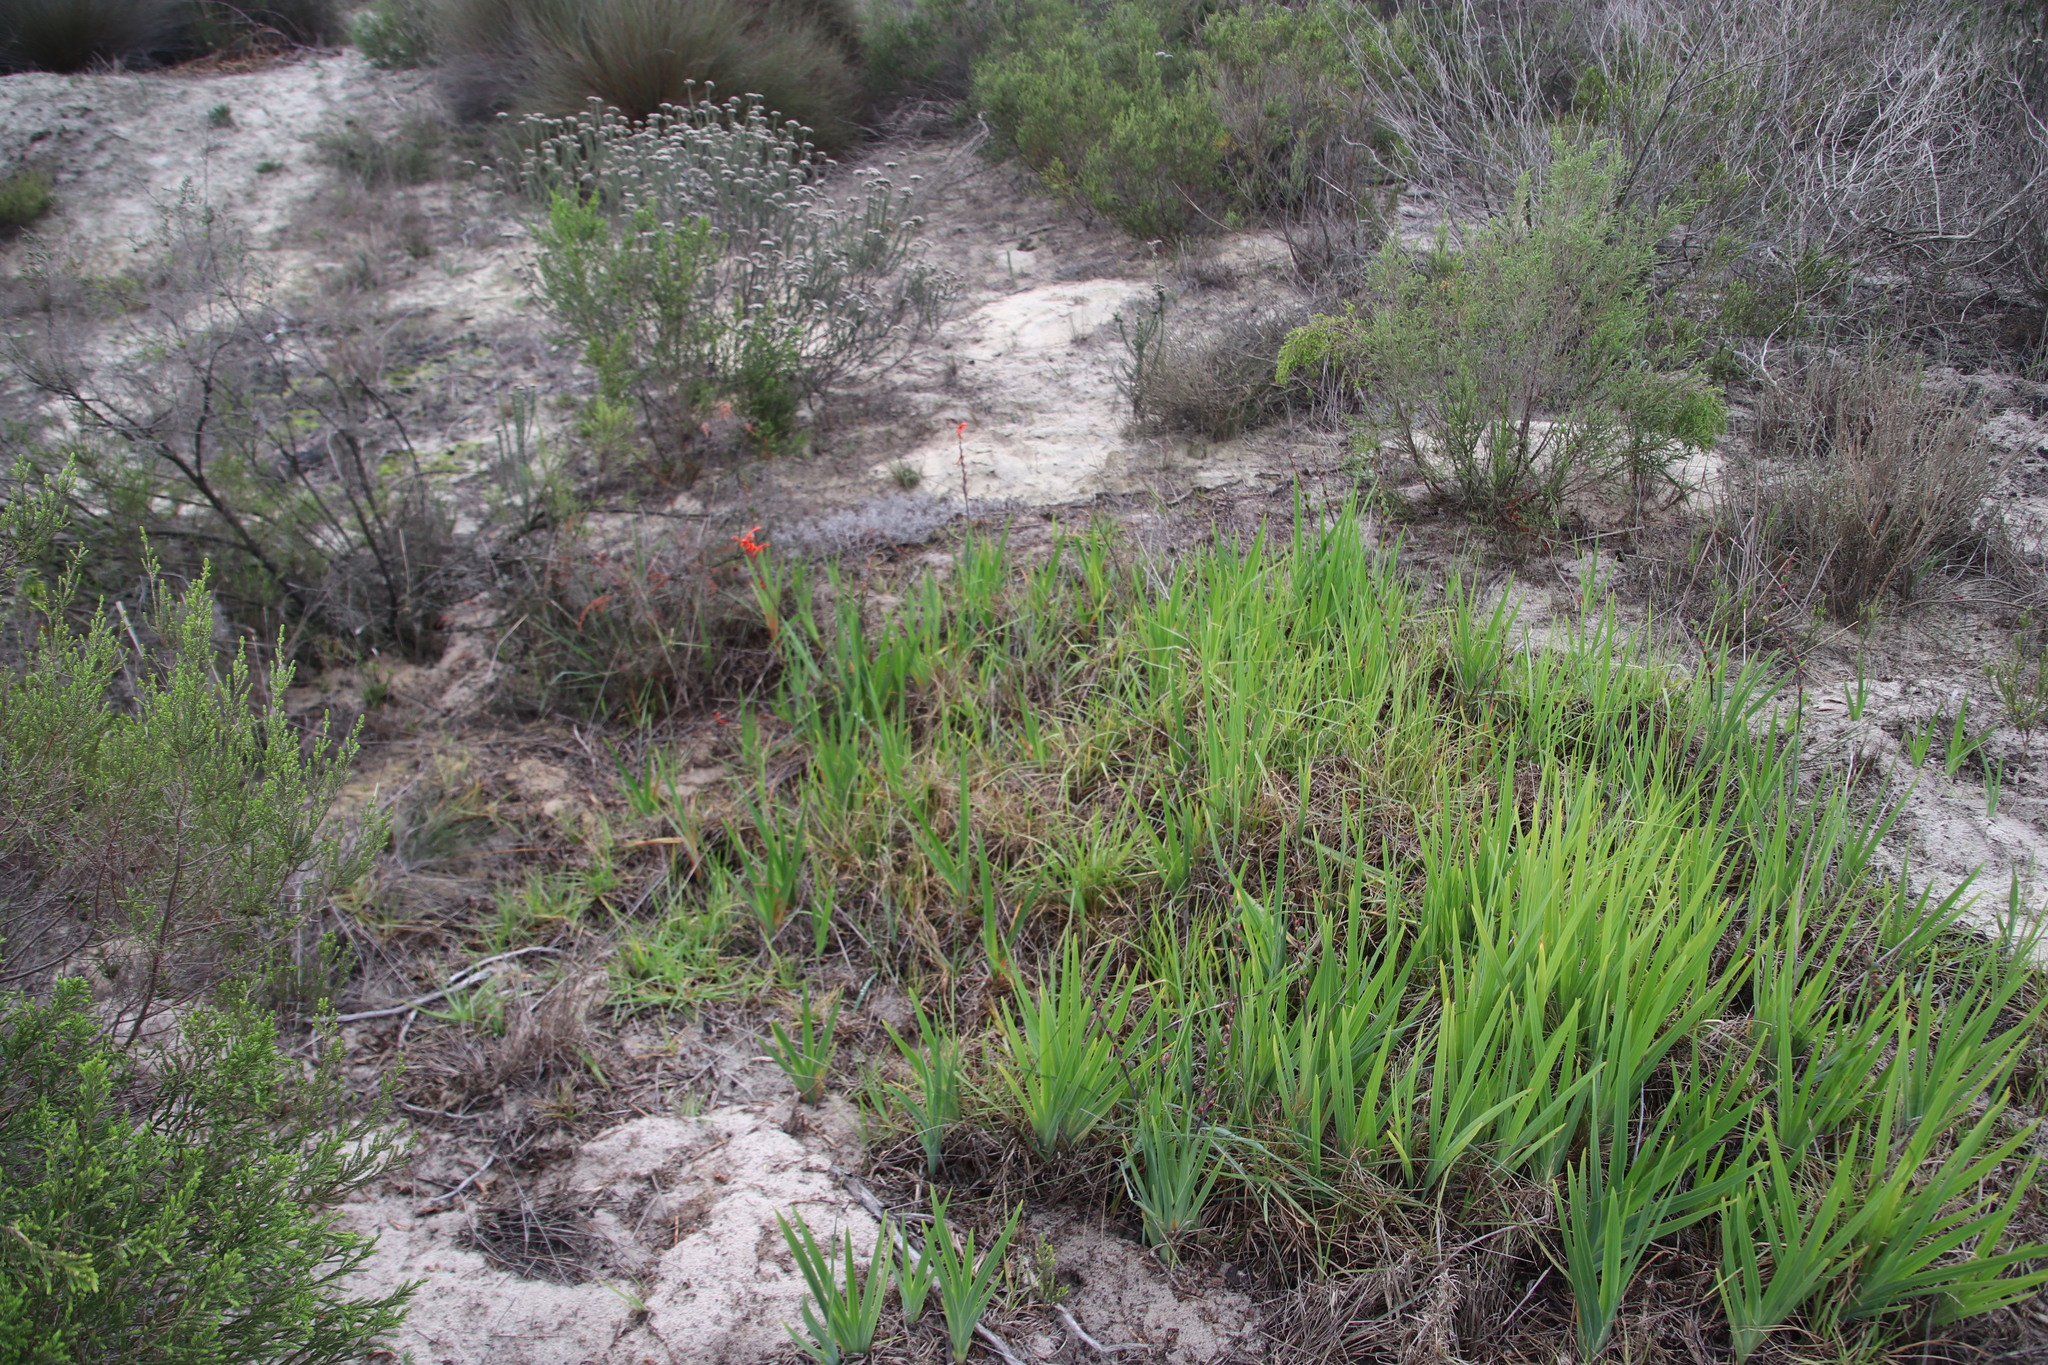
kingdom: Plantae
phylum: Tracheophyta
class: Liliopsida
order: Asparagales
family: Iridaceae
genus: Chasmanthe
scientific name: Chasmanthe aethiopica
